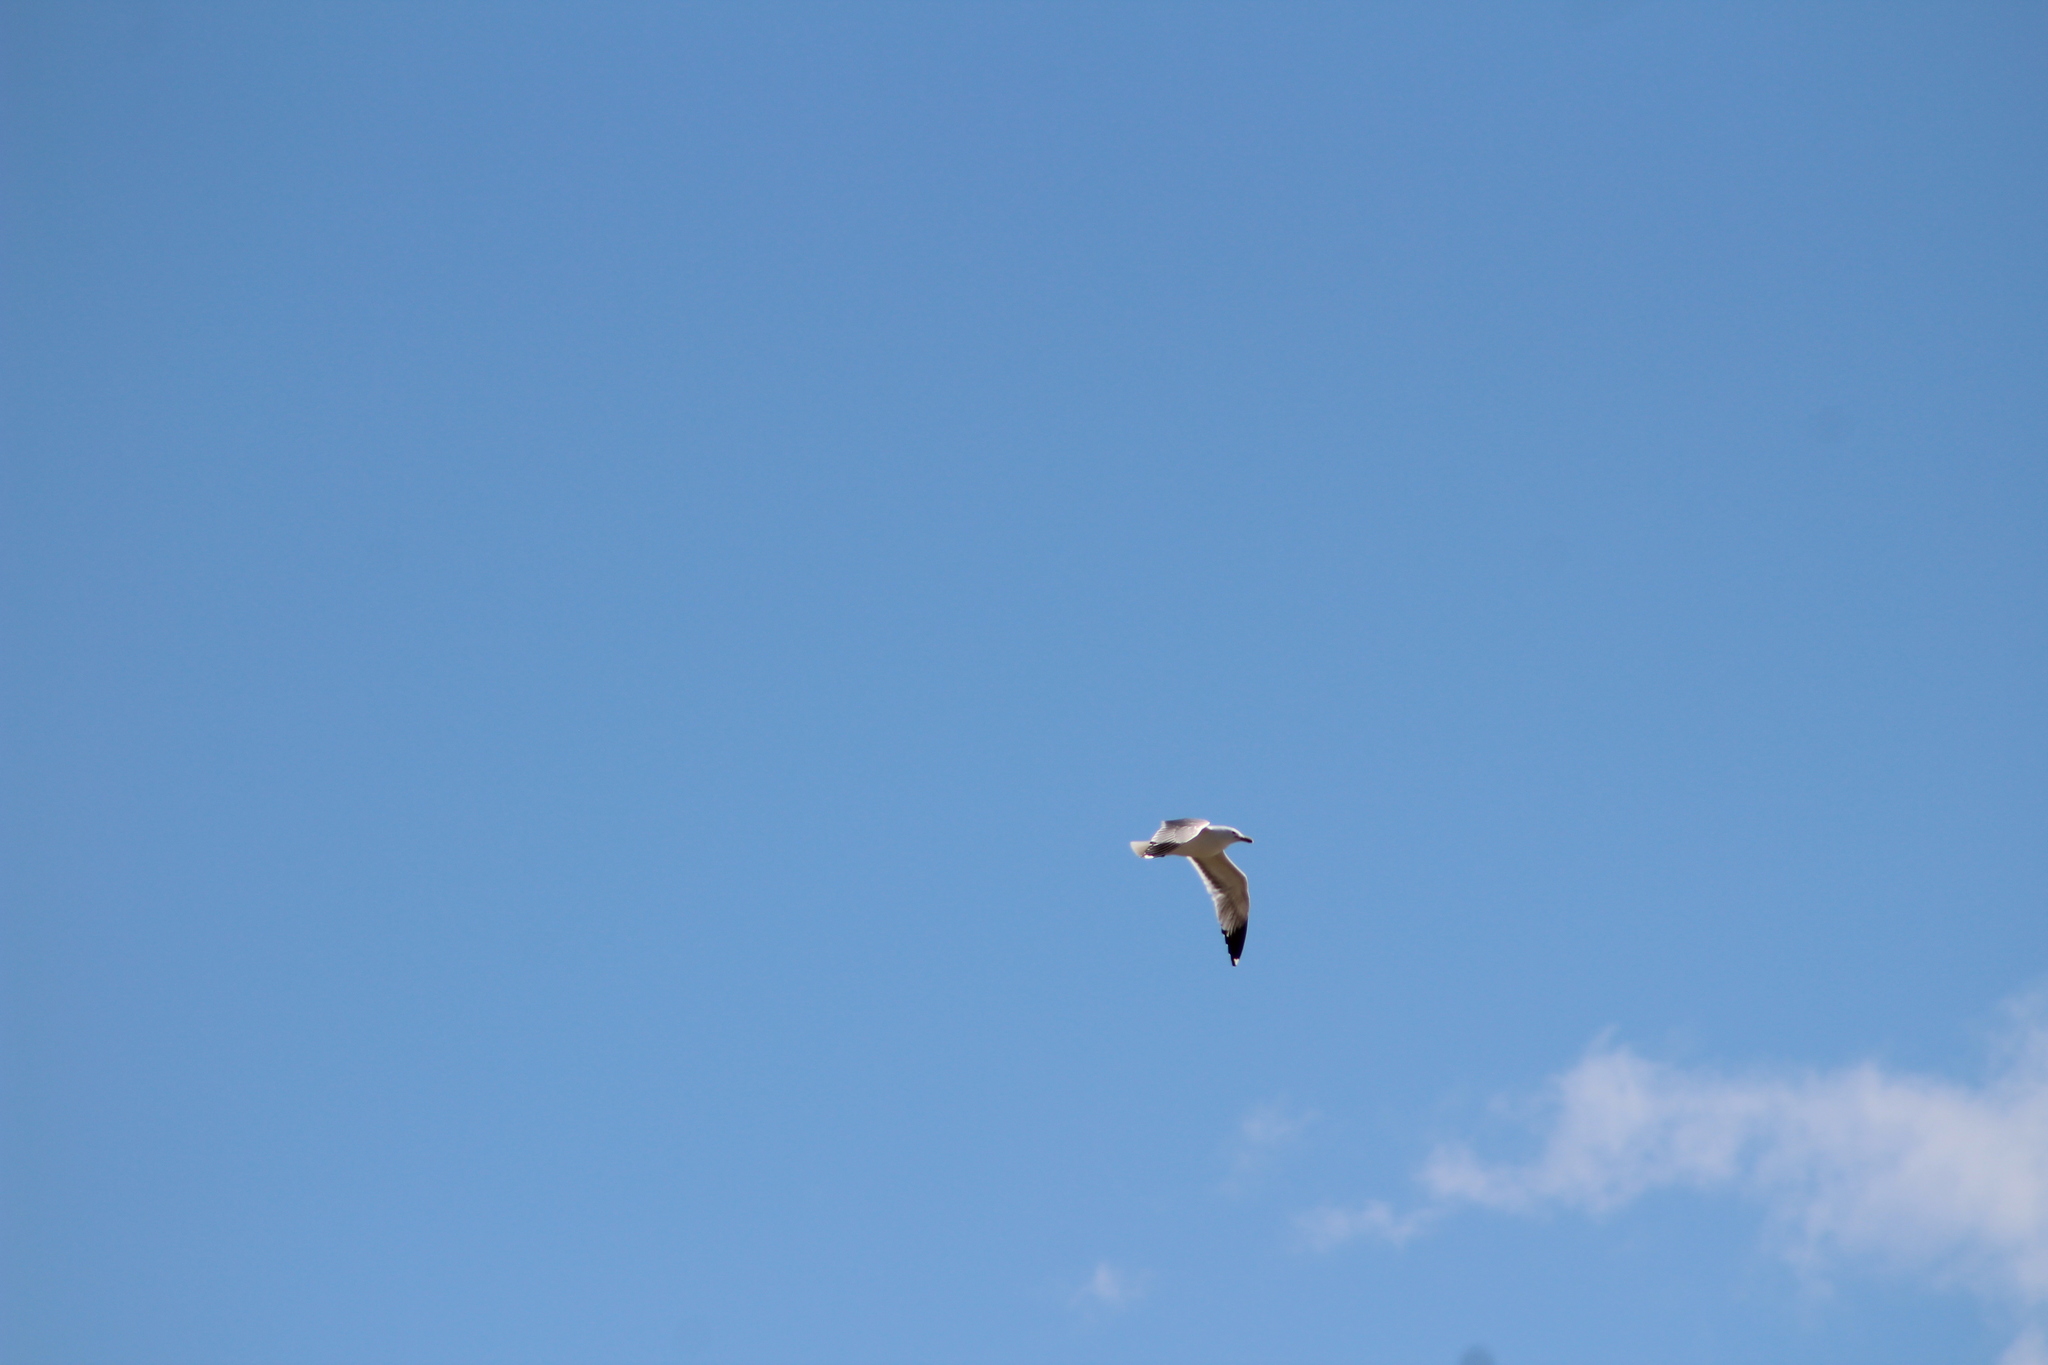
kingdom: Animalia
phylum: Chordata
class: Aves
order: Charadriiformes
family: Laridae
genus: Larus
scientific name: Larus californicus
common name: California gull
